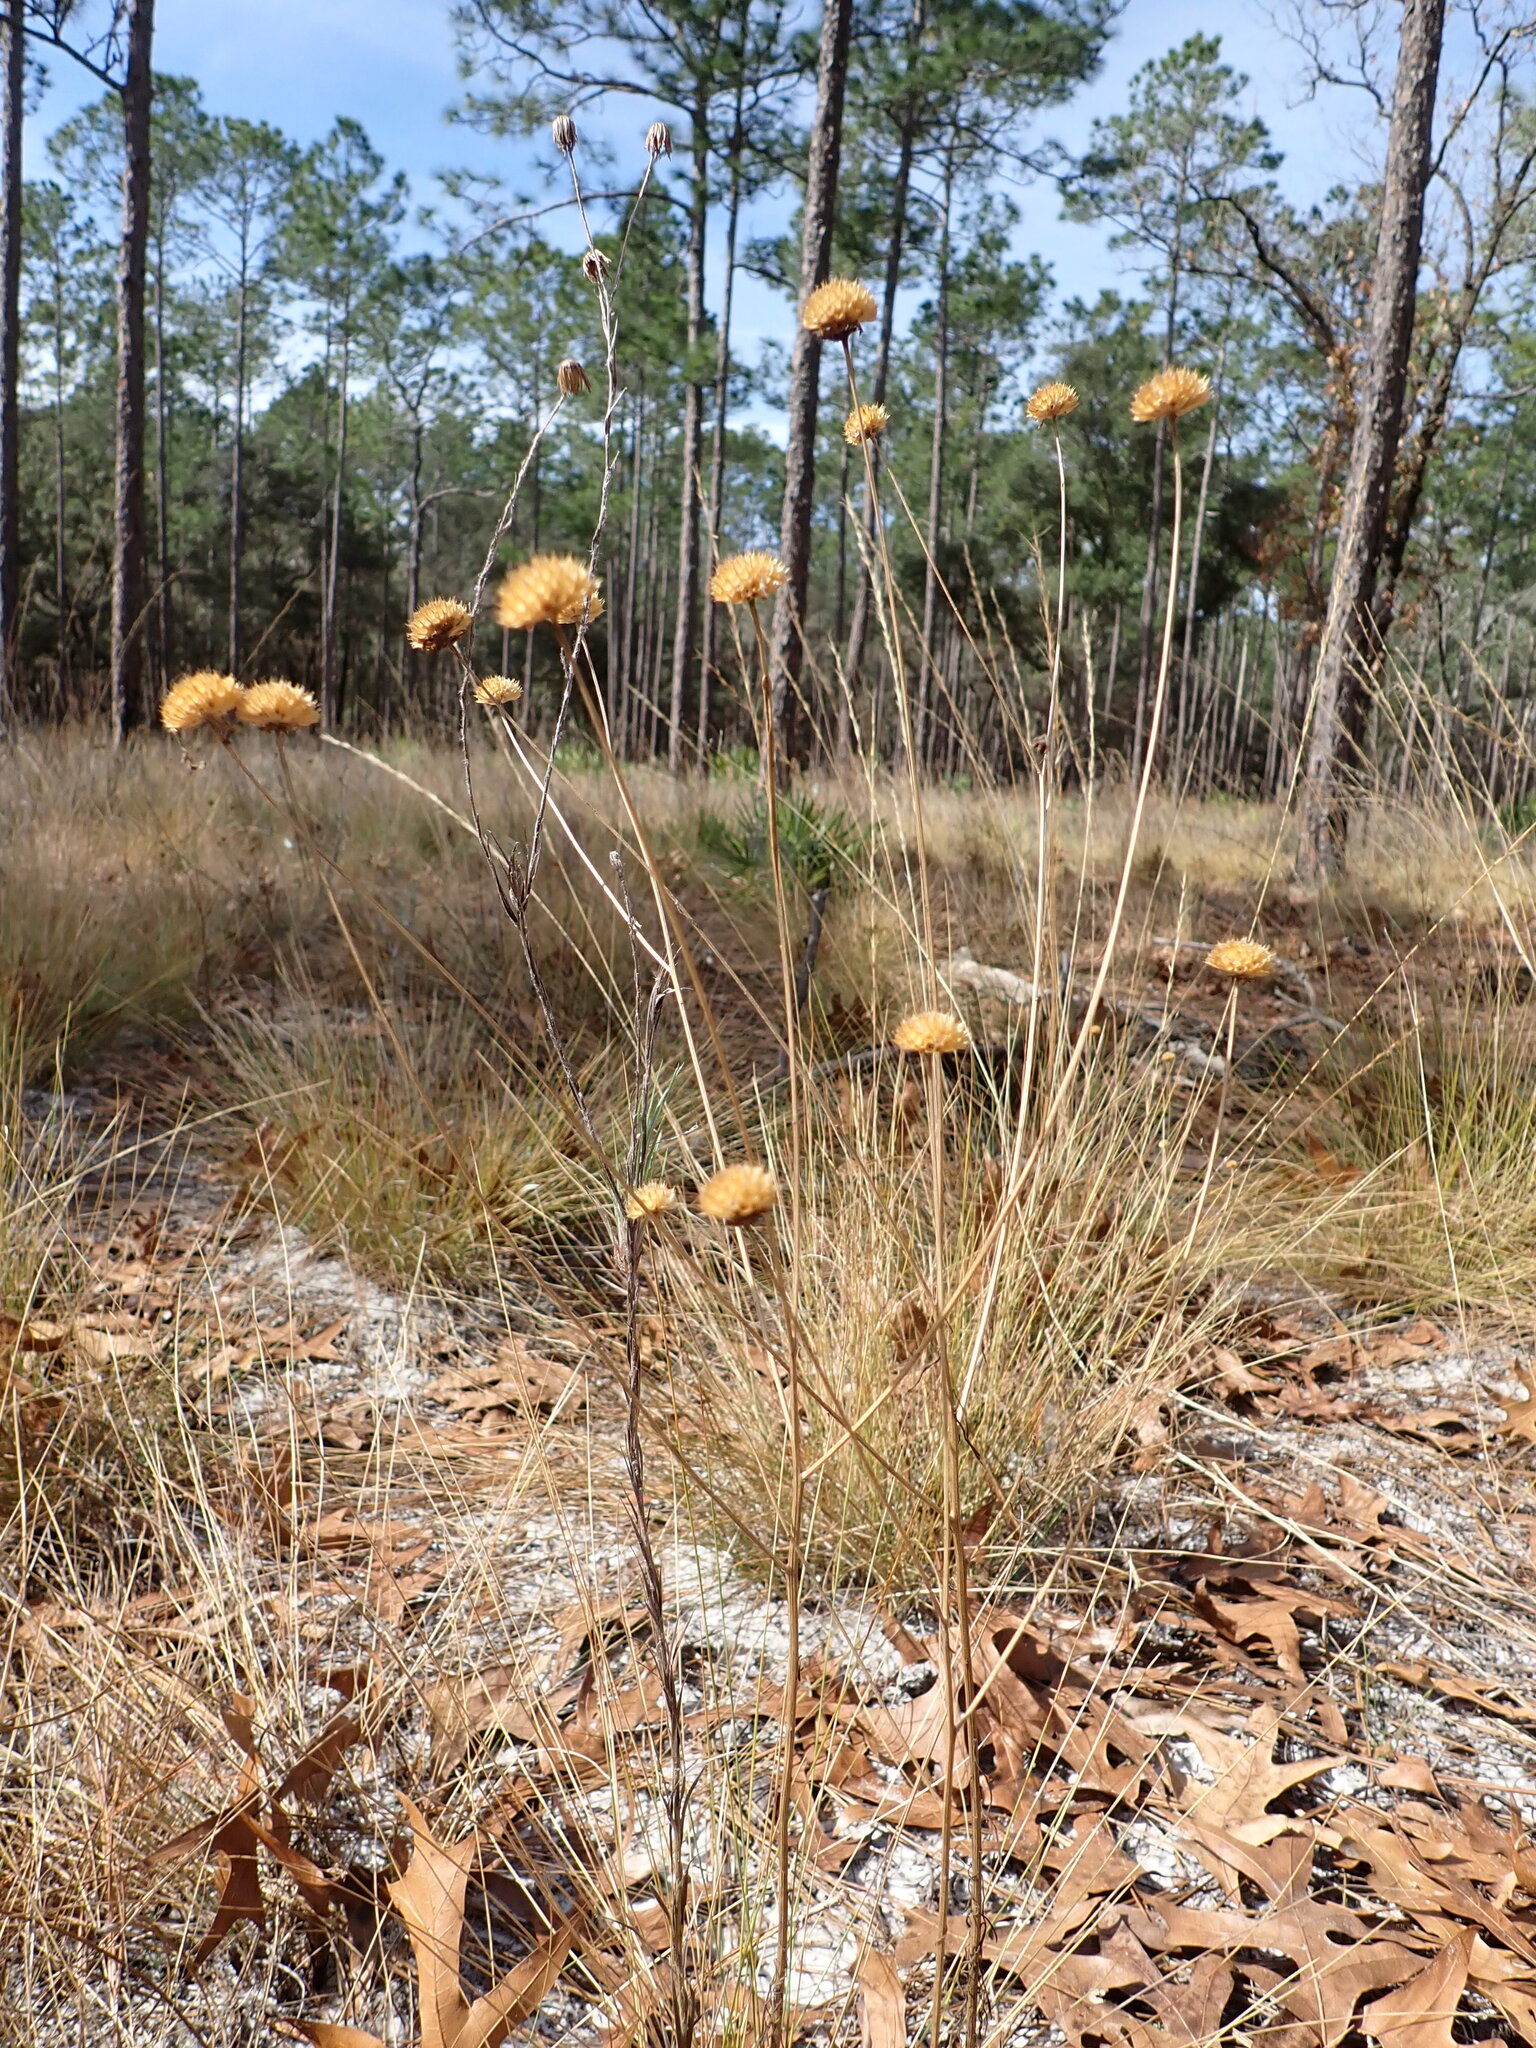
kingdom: Plantae
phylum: Tracheophyta
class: Magnoliopsida
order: Asterales
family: Asteraceae
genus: Balduina
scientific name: Balduina angustifolia
